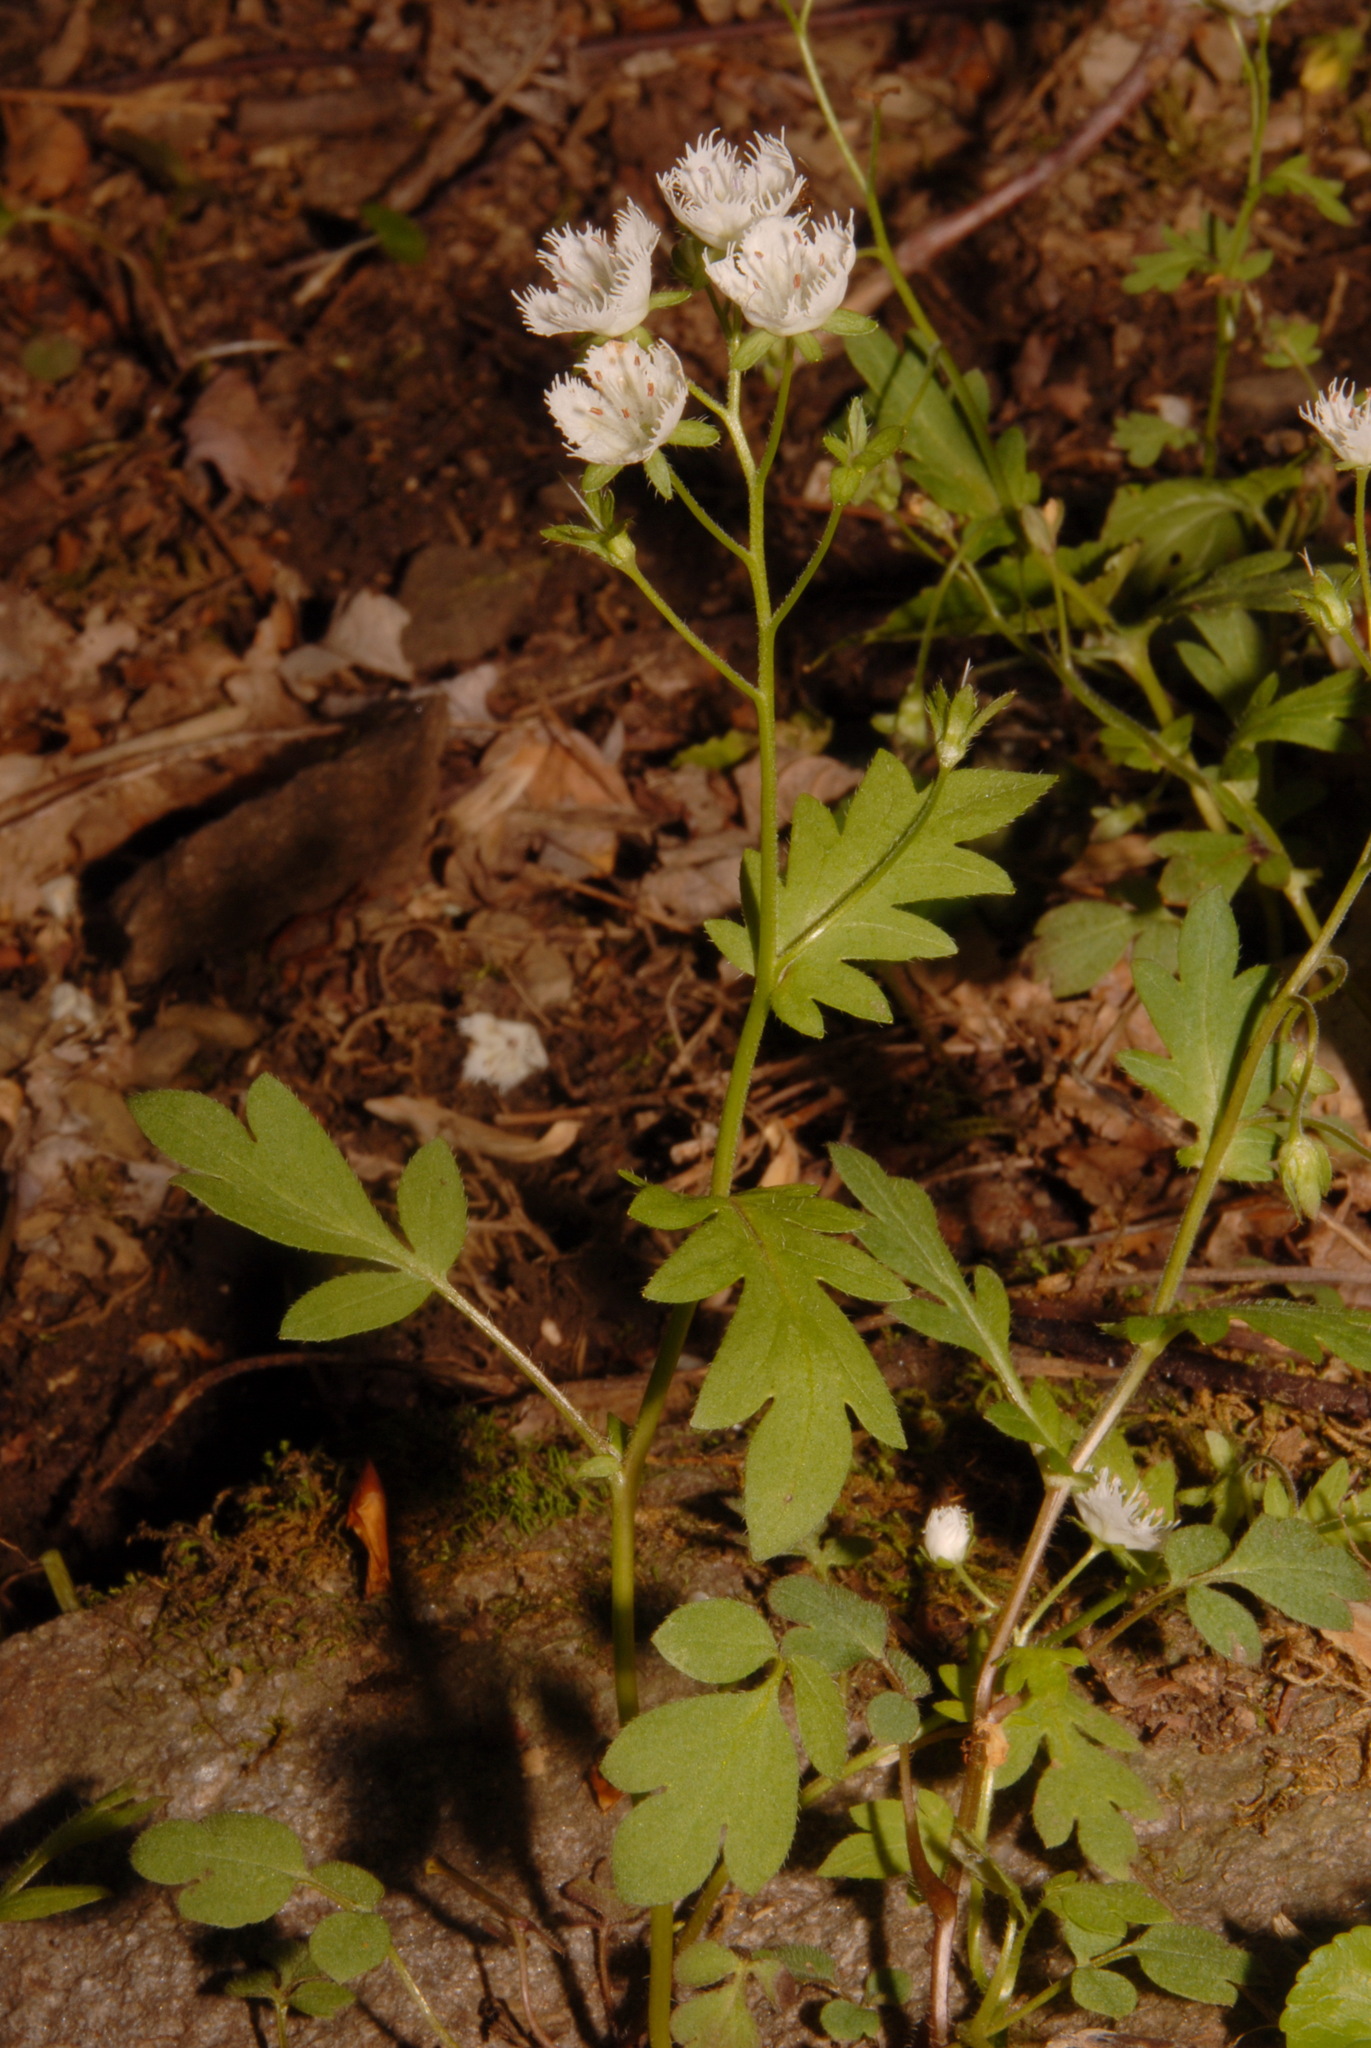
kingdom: Plantae
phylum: Tracheophyta
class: Magnoliopsida
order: Boraginales
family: Hydrophyllaceae
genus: Phacelia
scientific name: Phacelia fimbriata
